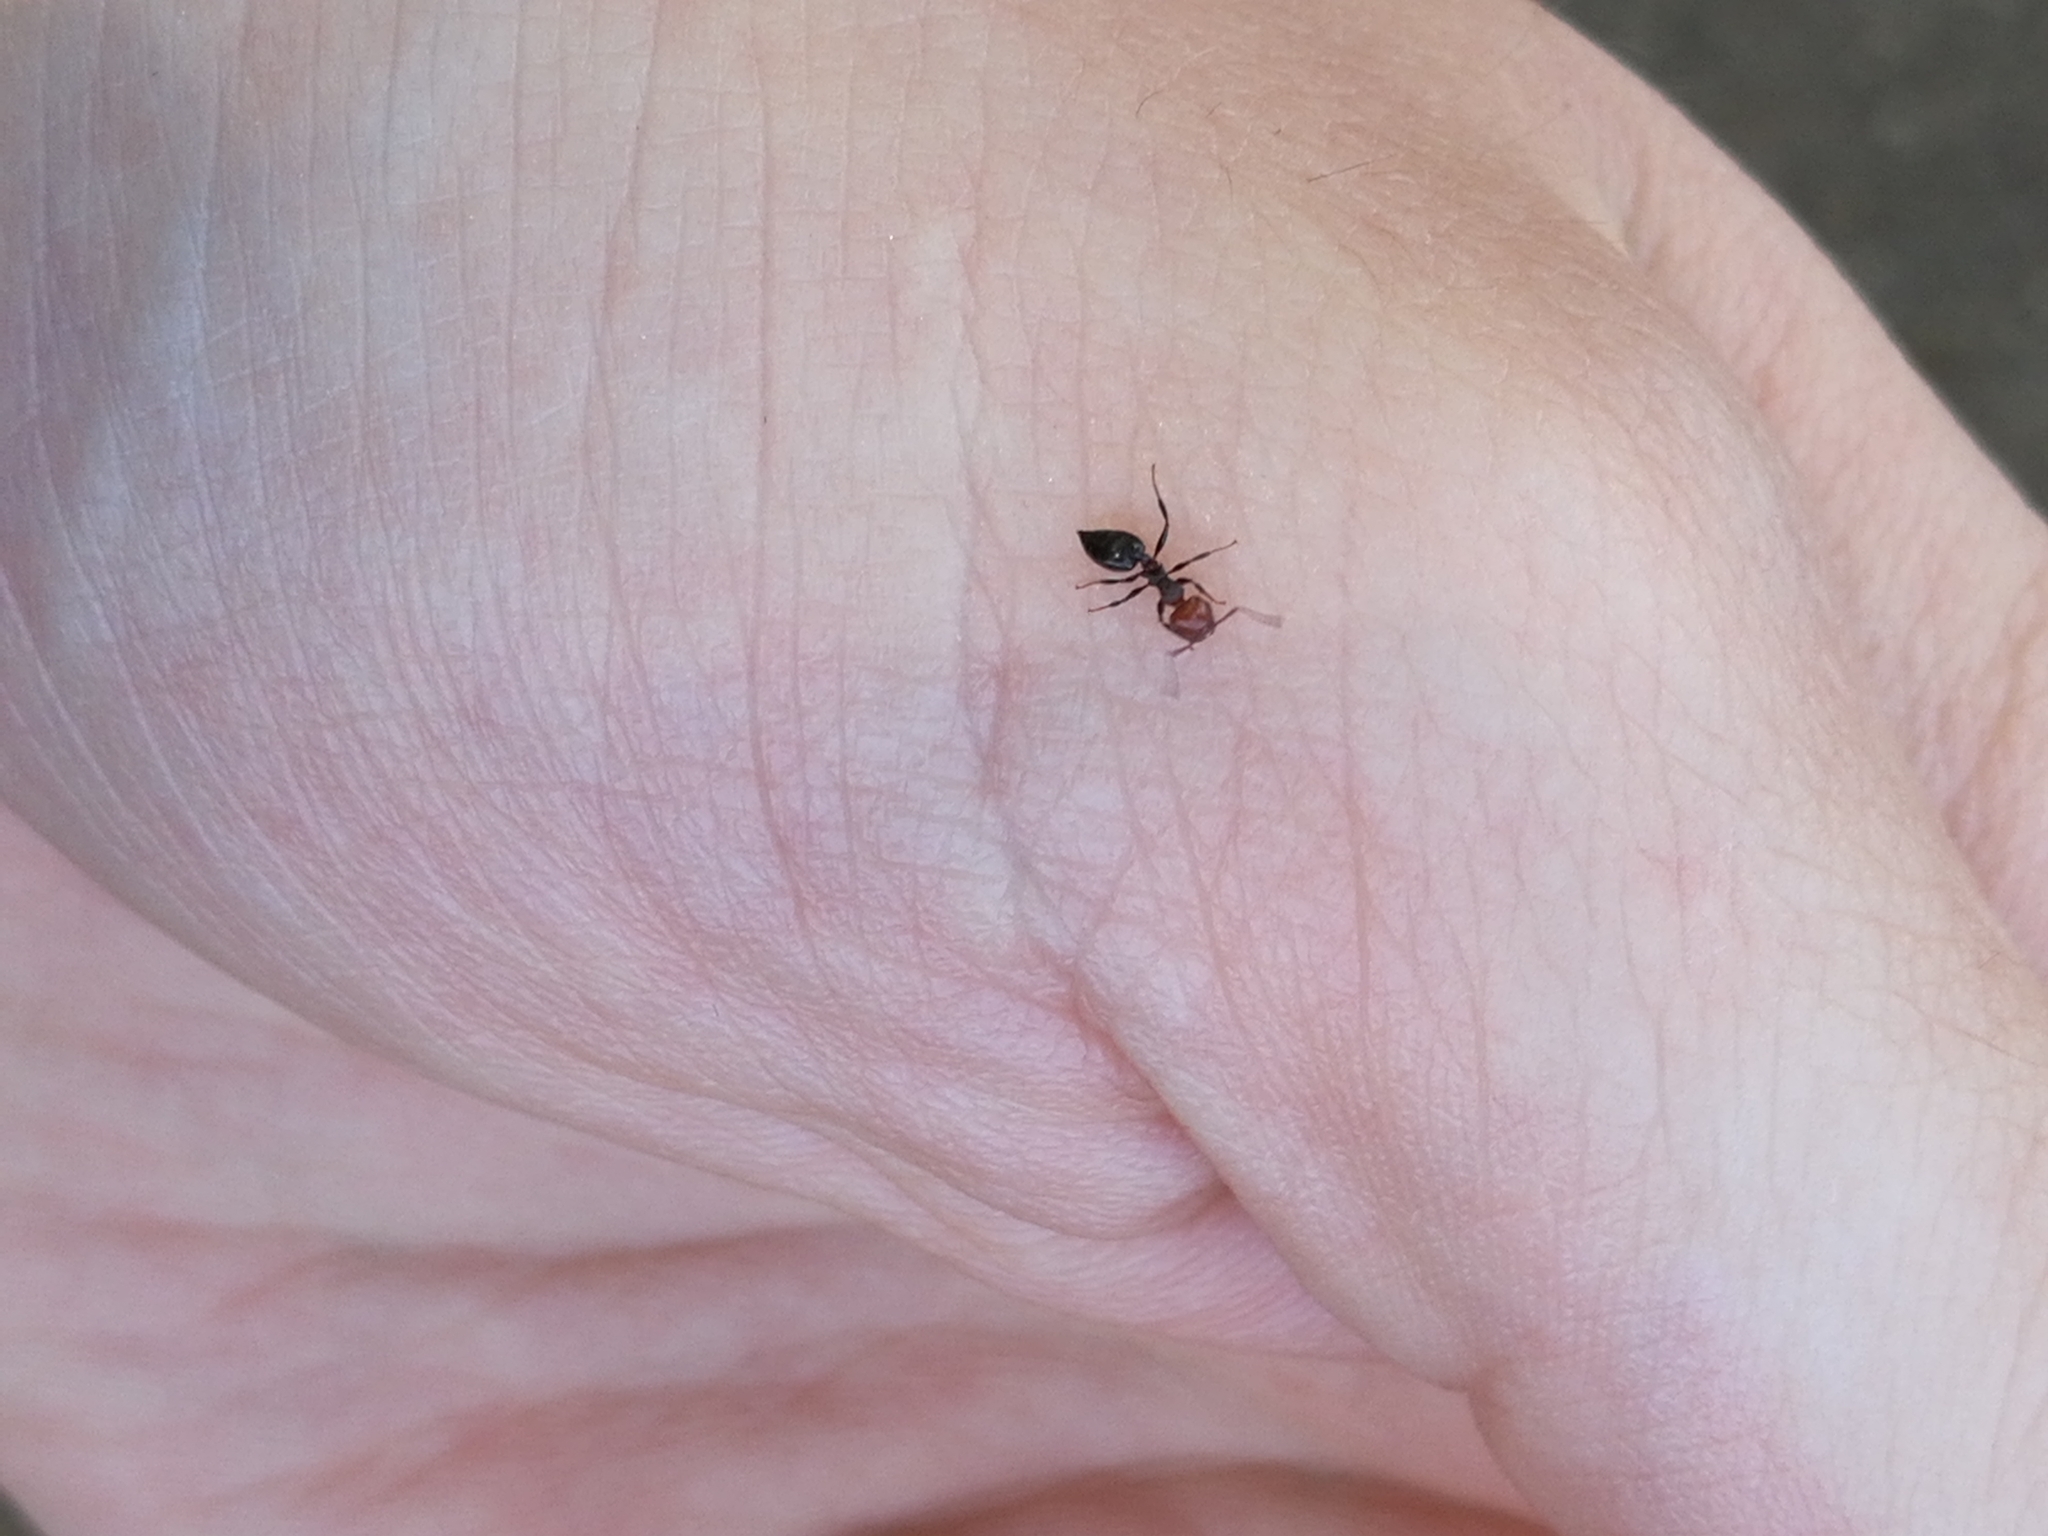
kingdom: Animalia
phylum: Arthropoda
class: Insecta
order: Hymenoptera
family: Formicidae
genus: Crematogaster
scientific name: Crematogaster scutellaris
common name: Fourmi du liège
